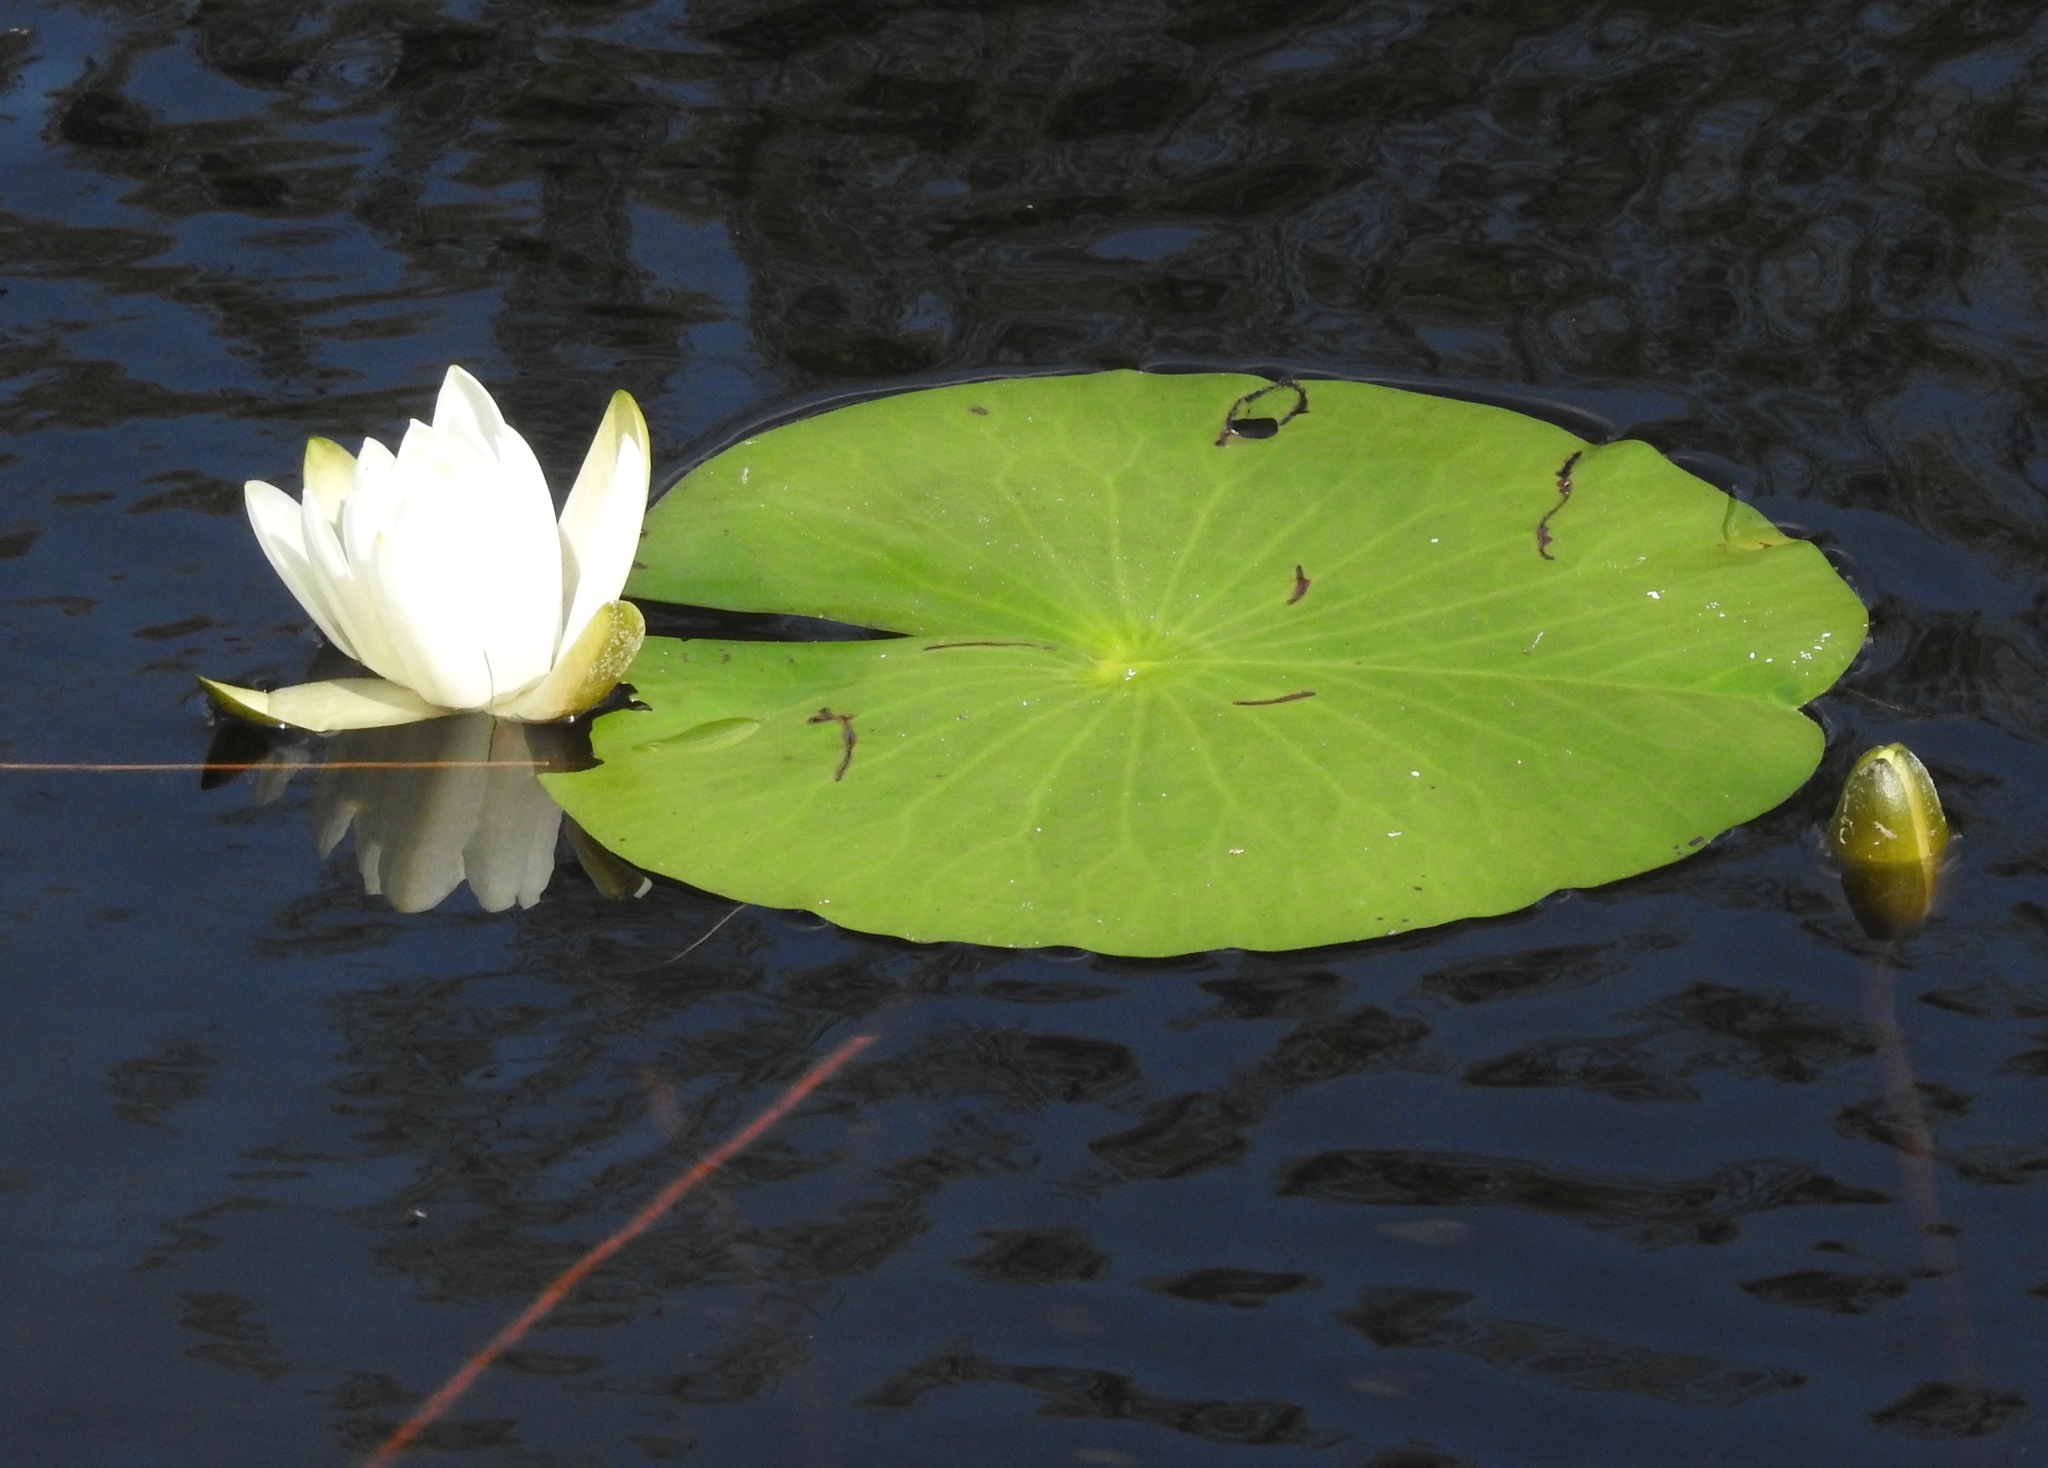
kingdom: Plantae
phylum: Tracheophyta
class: Magnoliopsida
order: Nymphaeales
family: Nymphaeaceae
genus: Nymphaea
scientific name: Nymphaea odorata
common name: Fragrant water-lily
